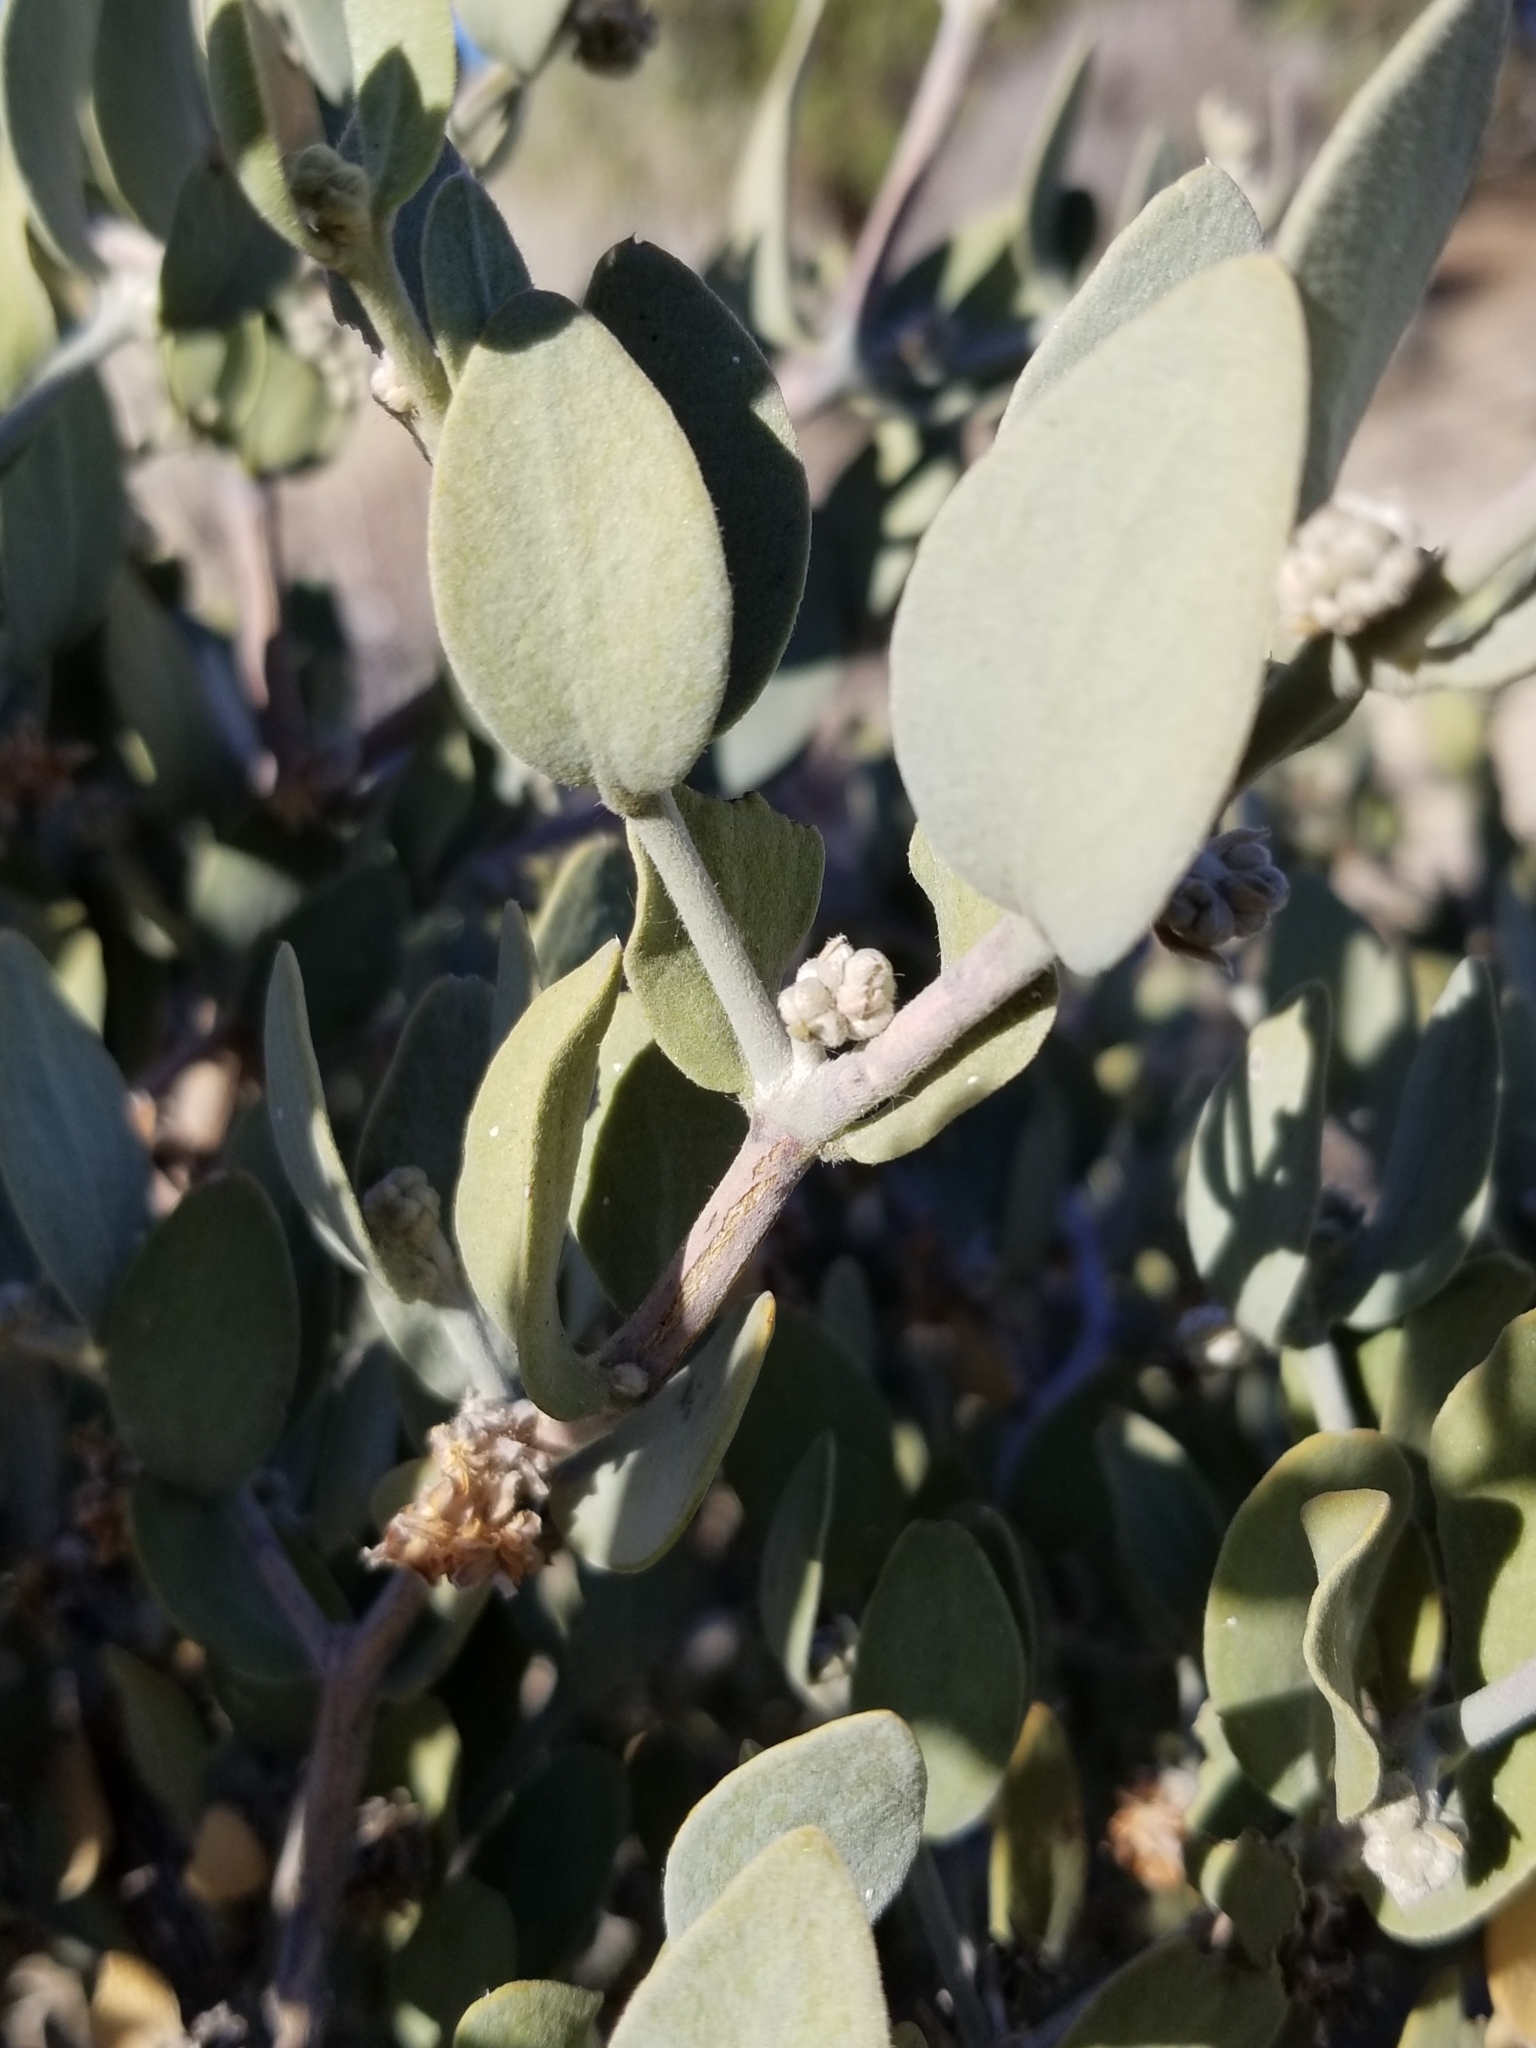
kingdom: Plantae
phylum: Tracheophyta
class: Magnoliopsida
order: Caryophyllales
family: Simmondsiaceae
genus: Simmondsia
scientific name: Simmondsia chinensis
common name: Jojoba
